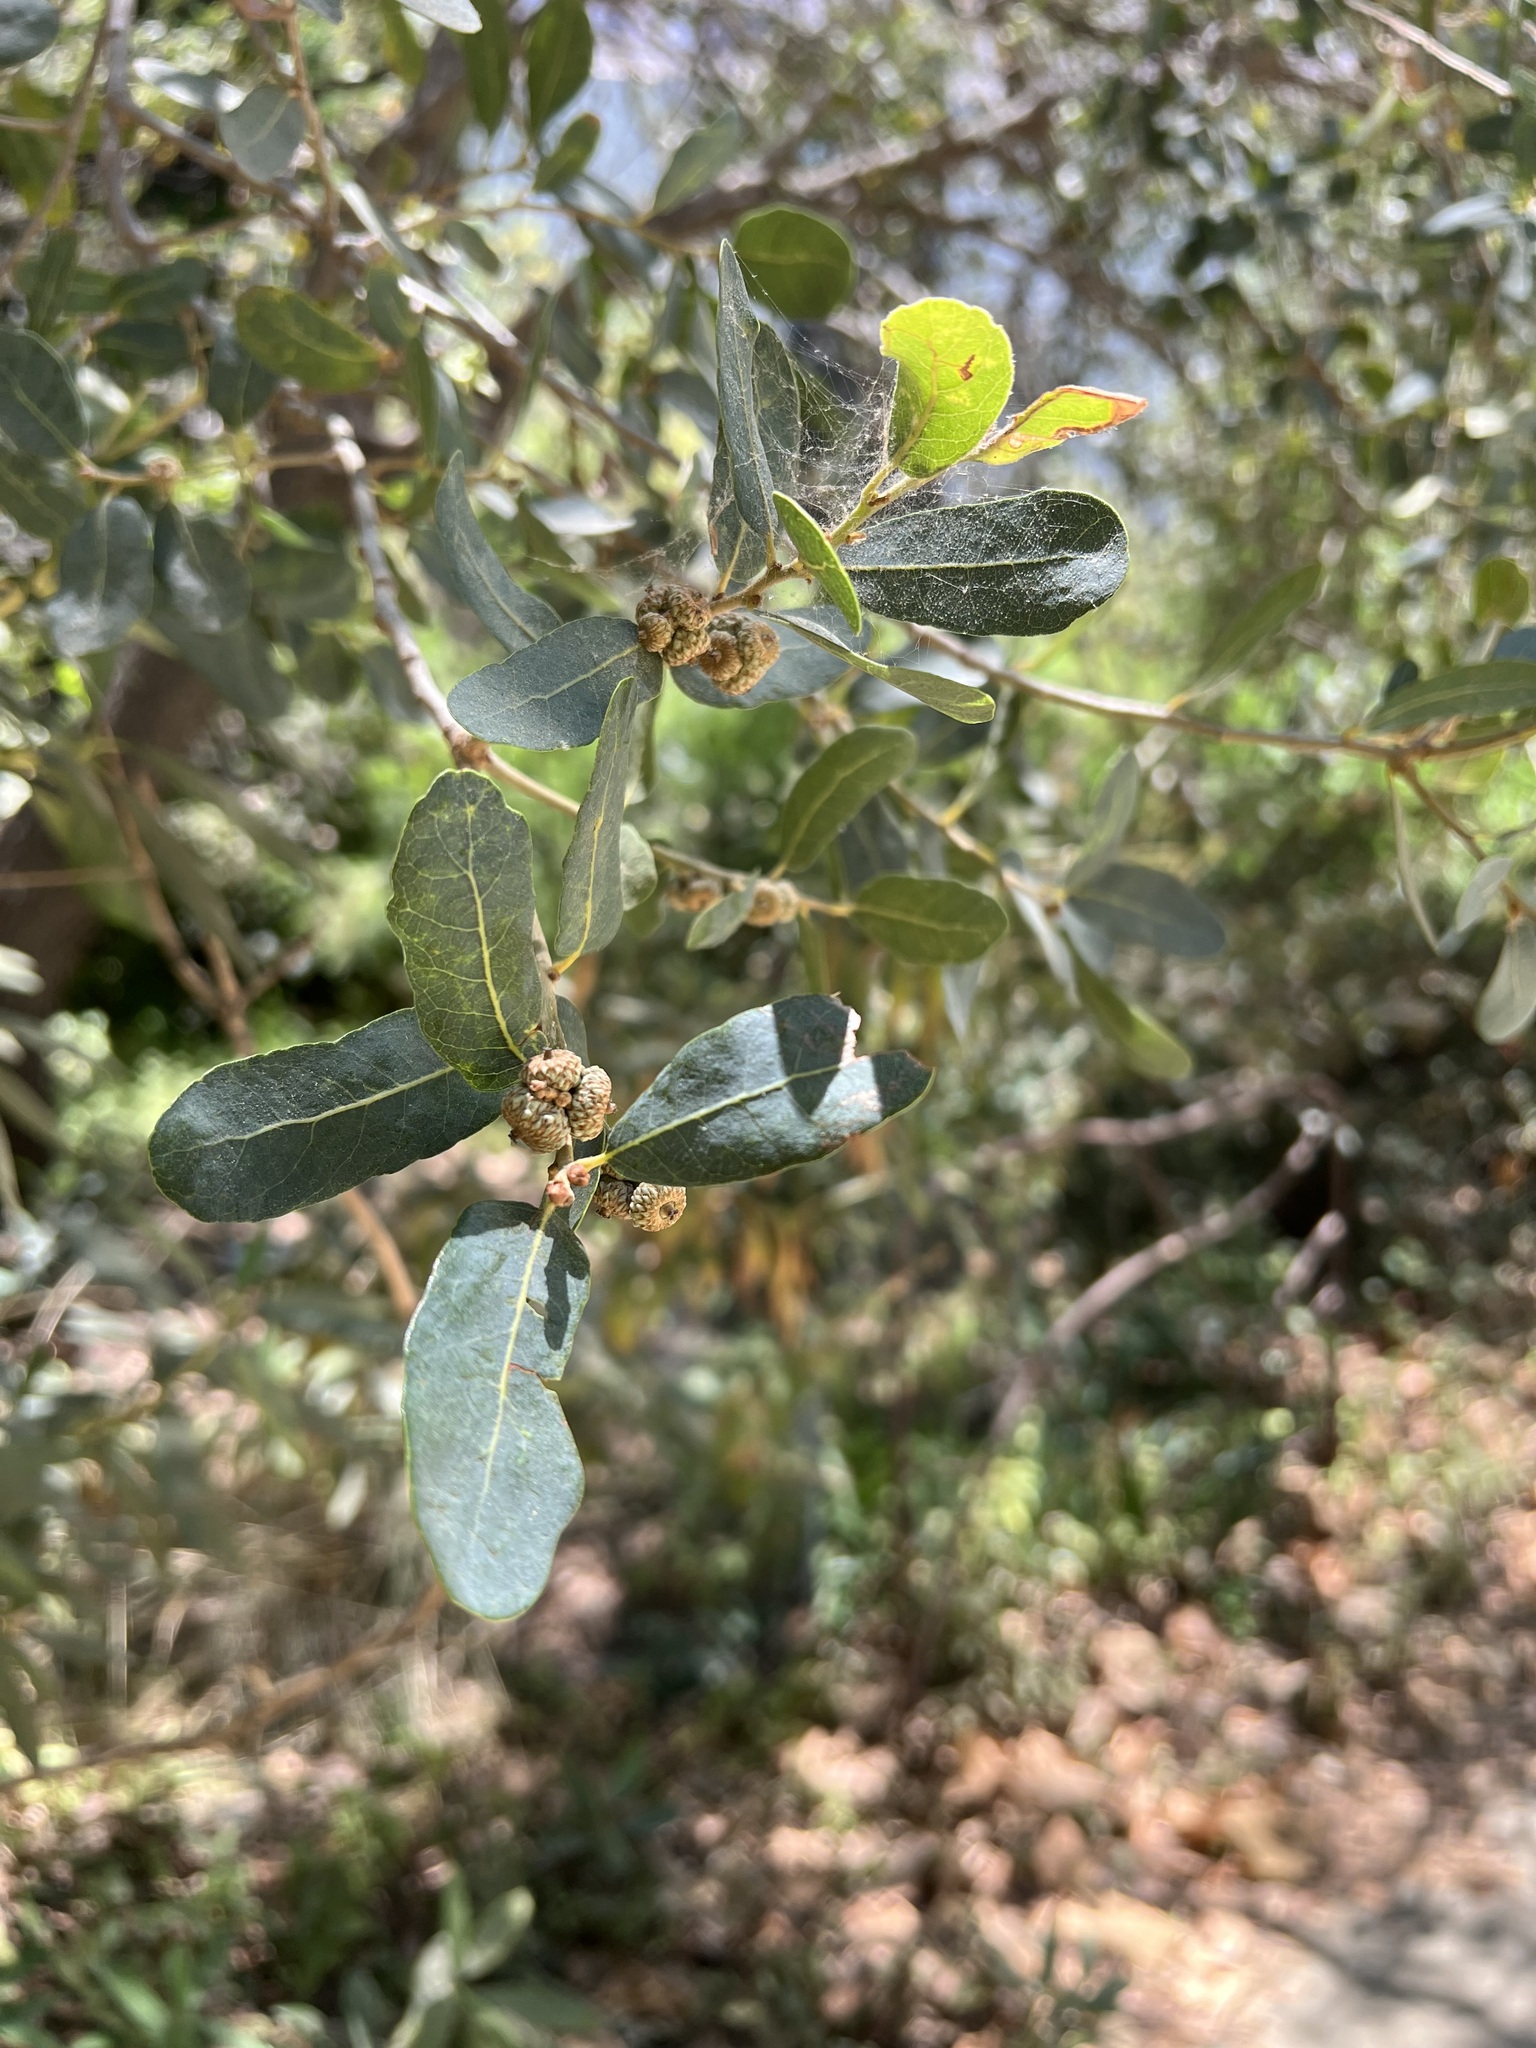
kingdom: Plantae
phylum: Tracheophyta
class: Magnoliopsida
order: Fagales
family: Fagaceae
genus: Quercus
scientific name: Quercus engelmannii
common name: Engelmann oak
